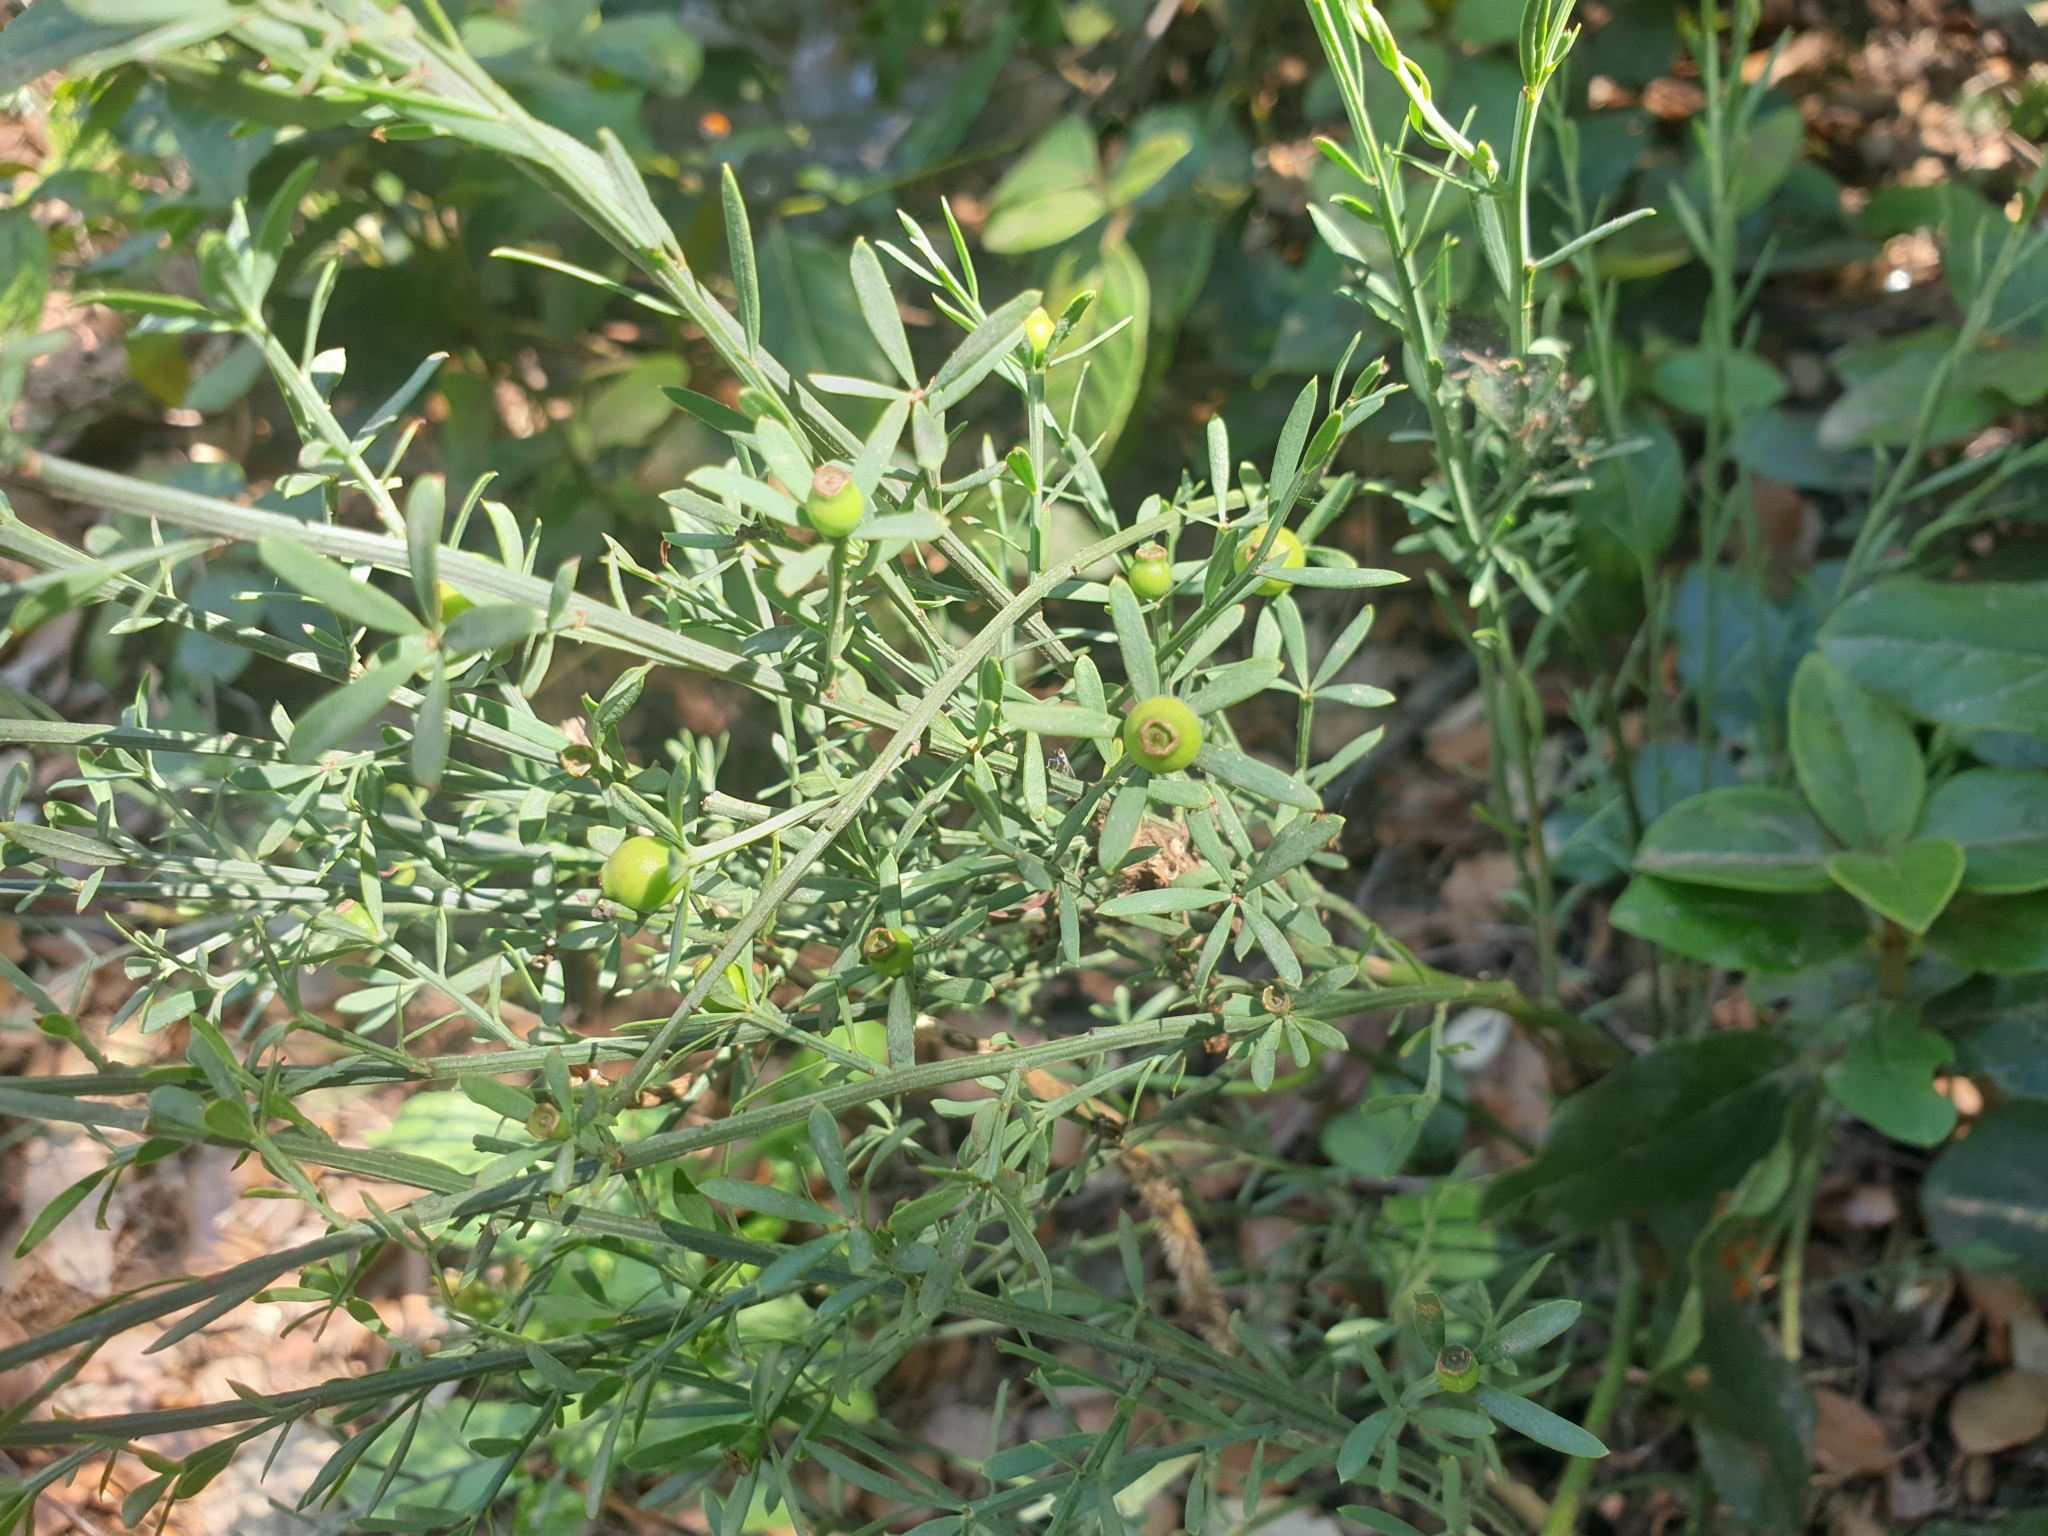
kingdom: Plantae
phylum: Tracheophyta
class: Magnoliopsida
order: Santalales
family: Santalaceae
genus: Osyris
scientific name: Osyris alba
